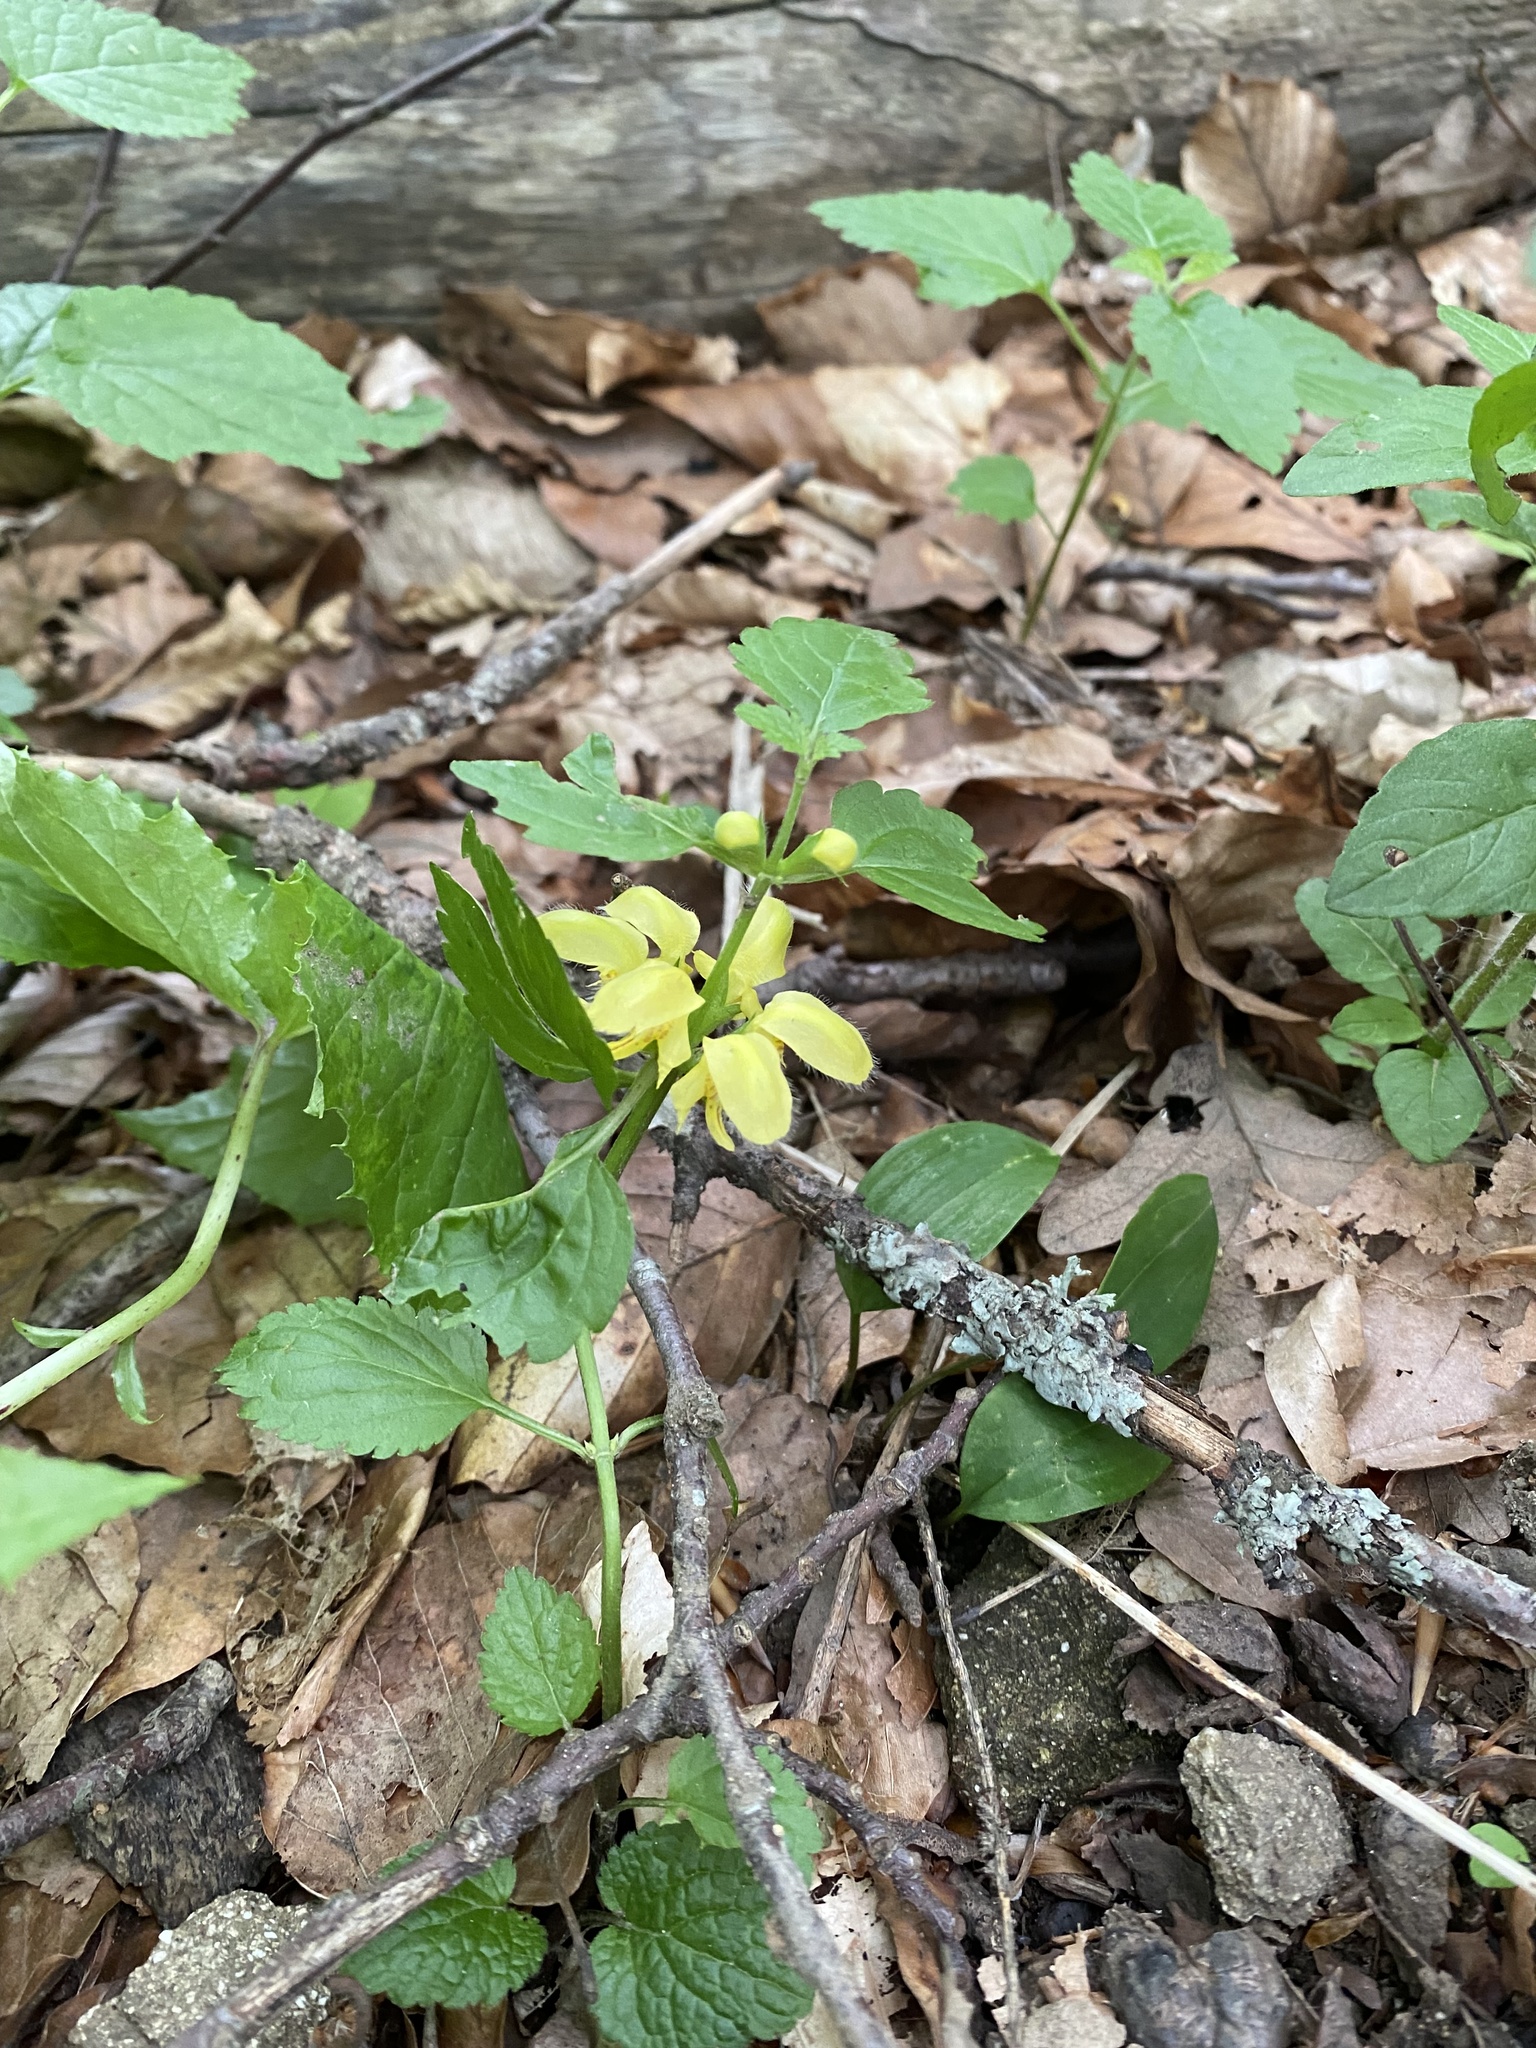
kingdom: Plantae
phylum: Tracheophyta
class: Magnoliopsida
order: Lamiales
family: Lamiaceae
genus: Lamium
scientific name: Lamium galeobdolon
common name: Yellow archangel
